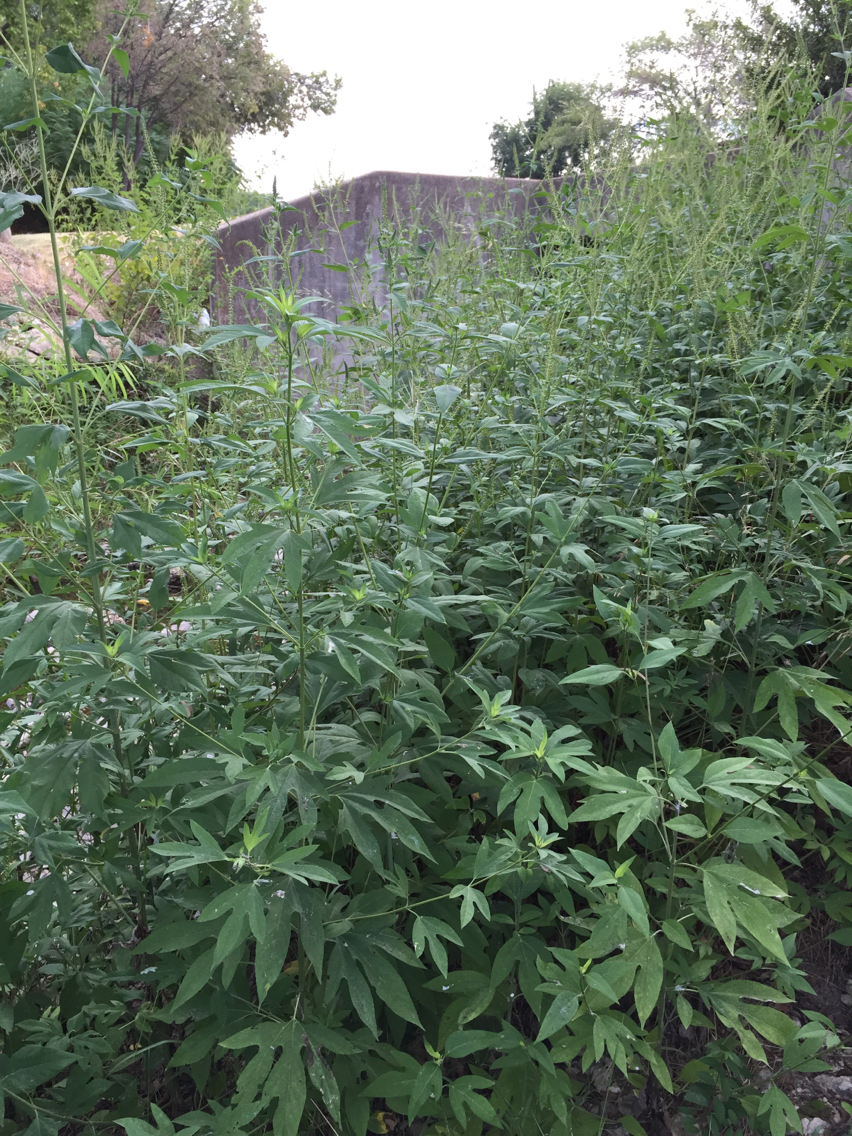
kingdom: Plantae
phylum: Tracheophyta
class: Magnoliopsida
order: Asterales
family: Asteraceae
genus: Ambrosia
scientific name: Ambrosia trifida
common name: Giant ragweed
